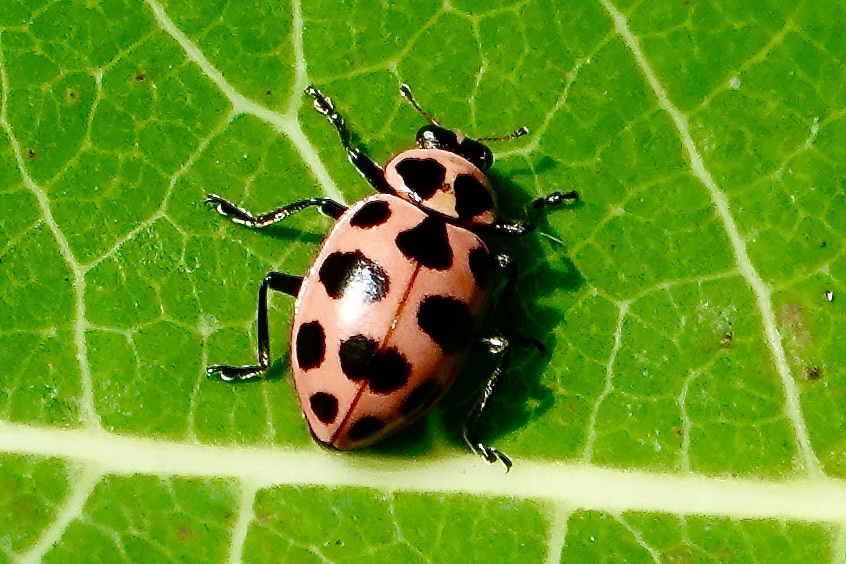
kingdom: Animalia
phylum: Arthropoda
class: Insecta
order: Coleoptera
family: Coccinellidae
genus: Coleomegilla
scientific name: Coleomegilla maculata
